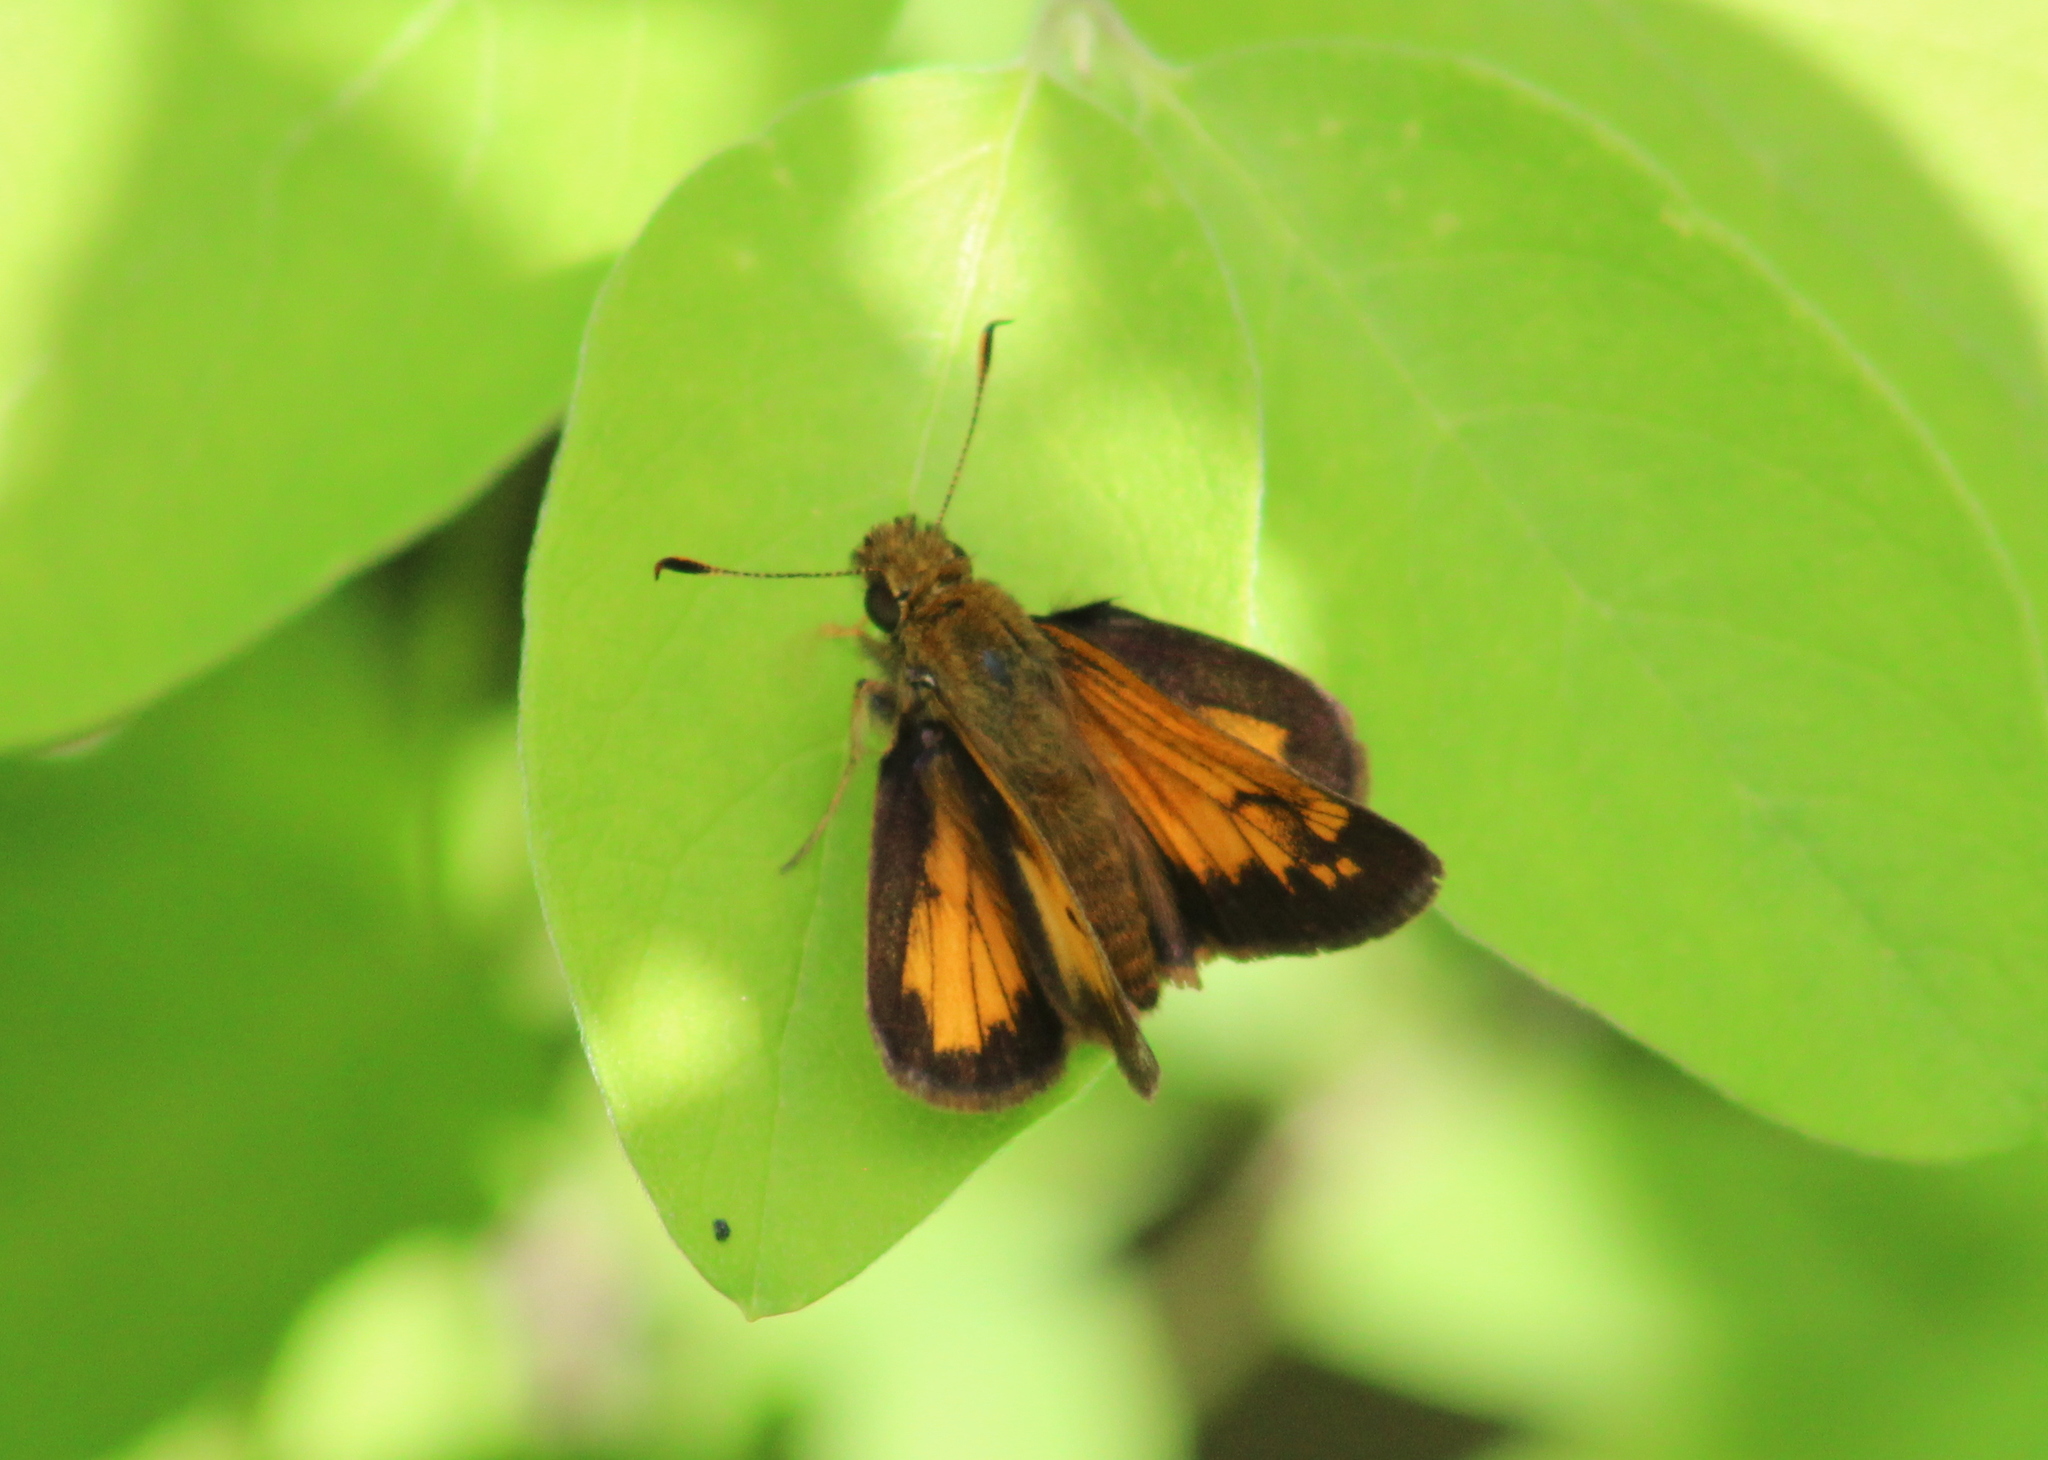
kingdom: Animalia
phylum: Arthropoda
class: Insecta
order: Lepidoptera
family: Hesperiidae
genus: Lon
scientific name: Lon hobomok
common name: Hobomok skipper
